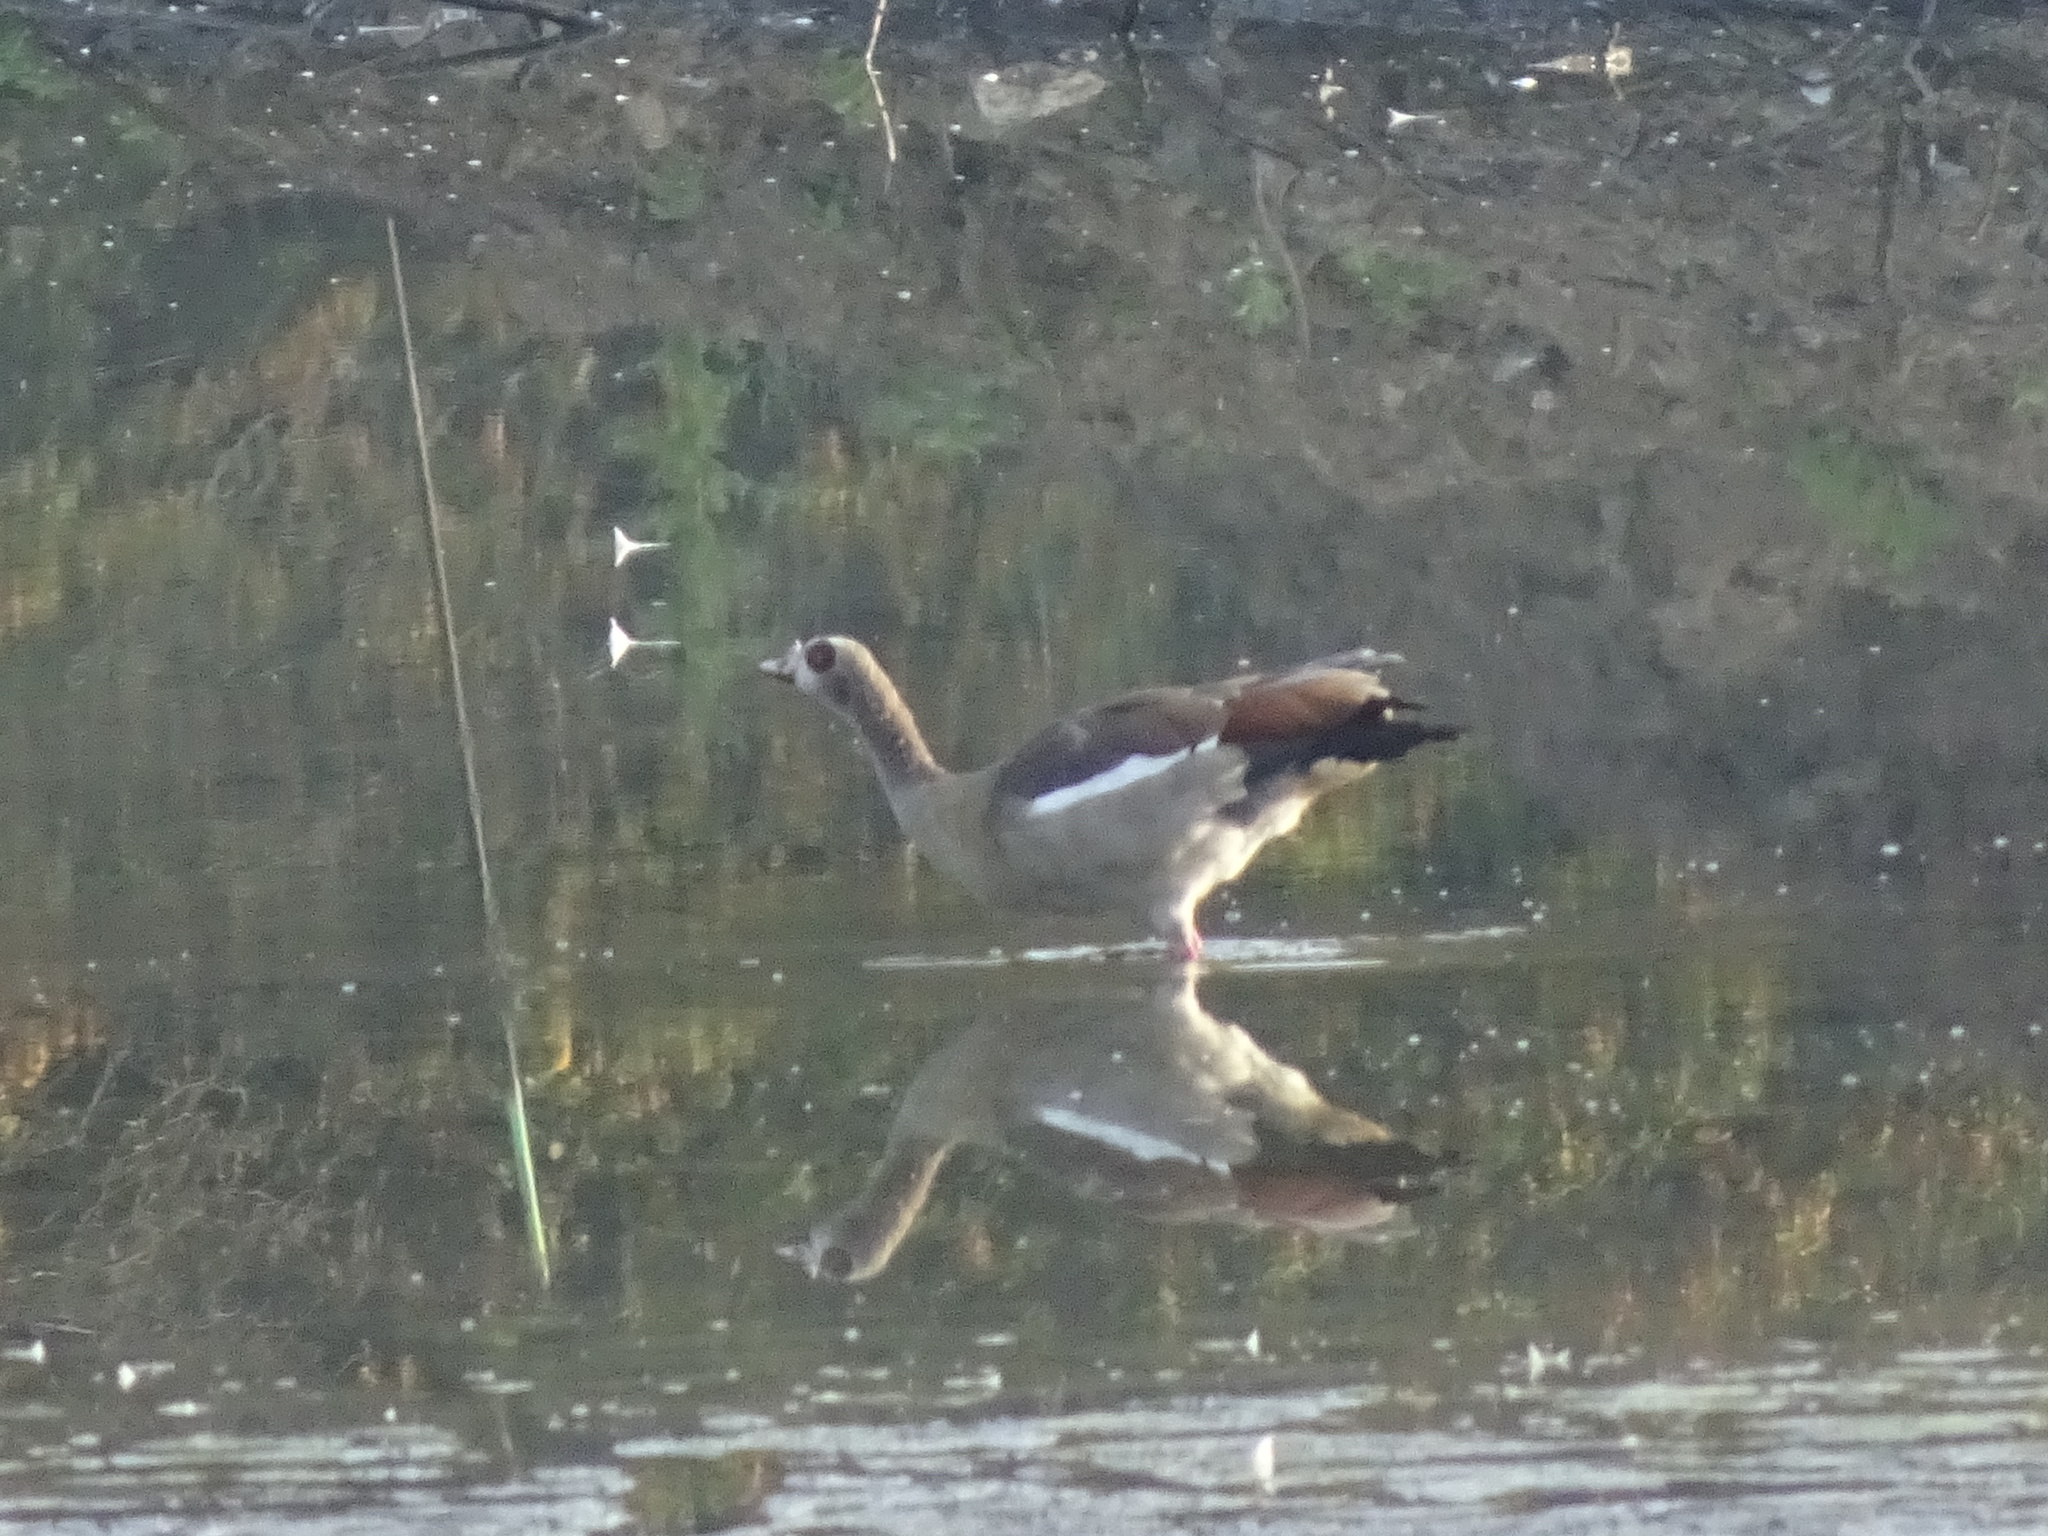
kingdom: Animalia
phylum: Chordata
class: Aves
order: Anseriformes
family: Anatidae
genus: Alopochen
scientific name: Alopochen aegyptiaca
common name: Egyptian goose
